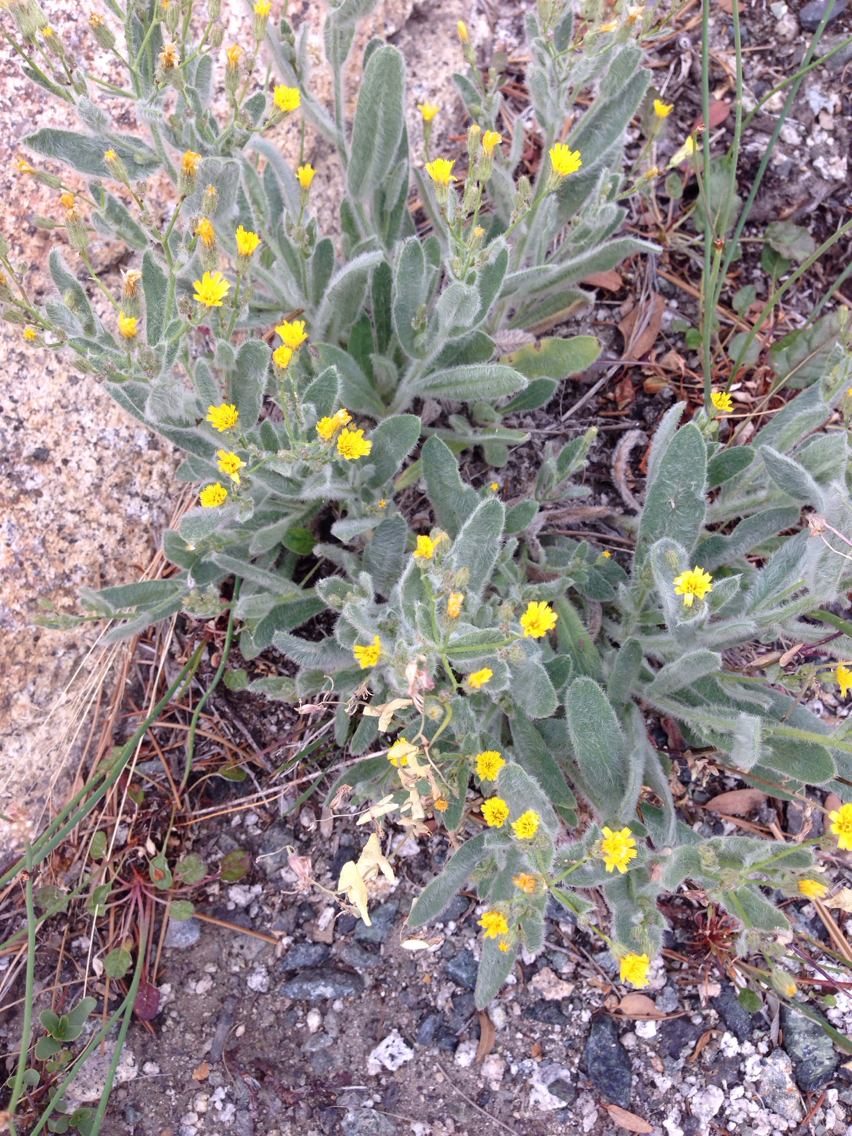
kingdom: Plantae
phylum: Tracheophyta
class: Magnoliopsida
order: Asterales
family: Asteraceae
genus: Hieracium
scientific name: Hieracium horridum
